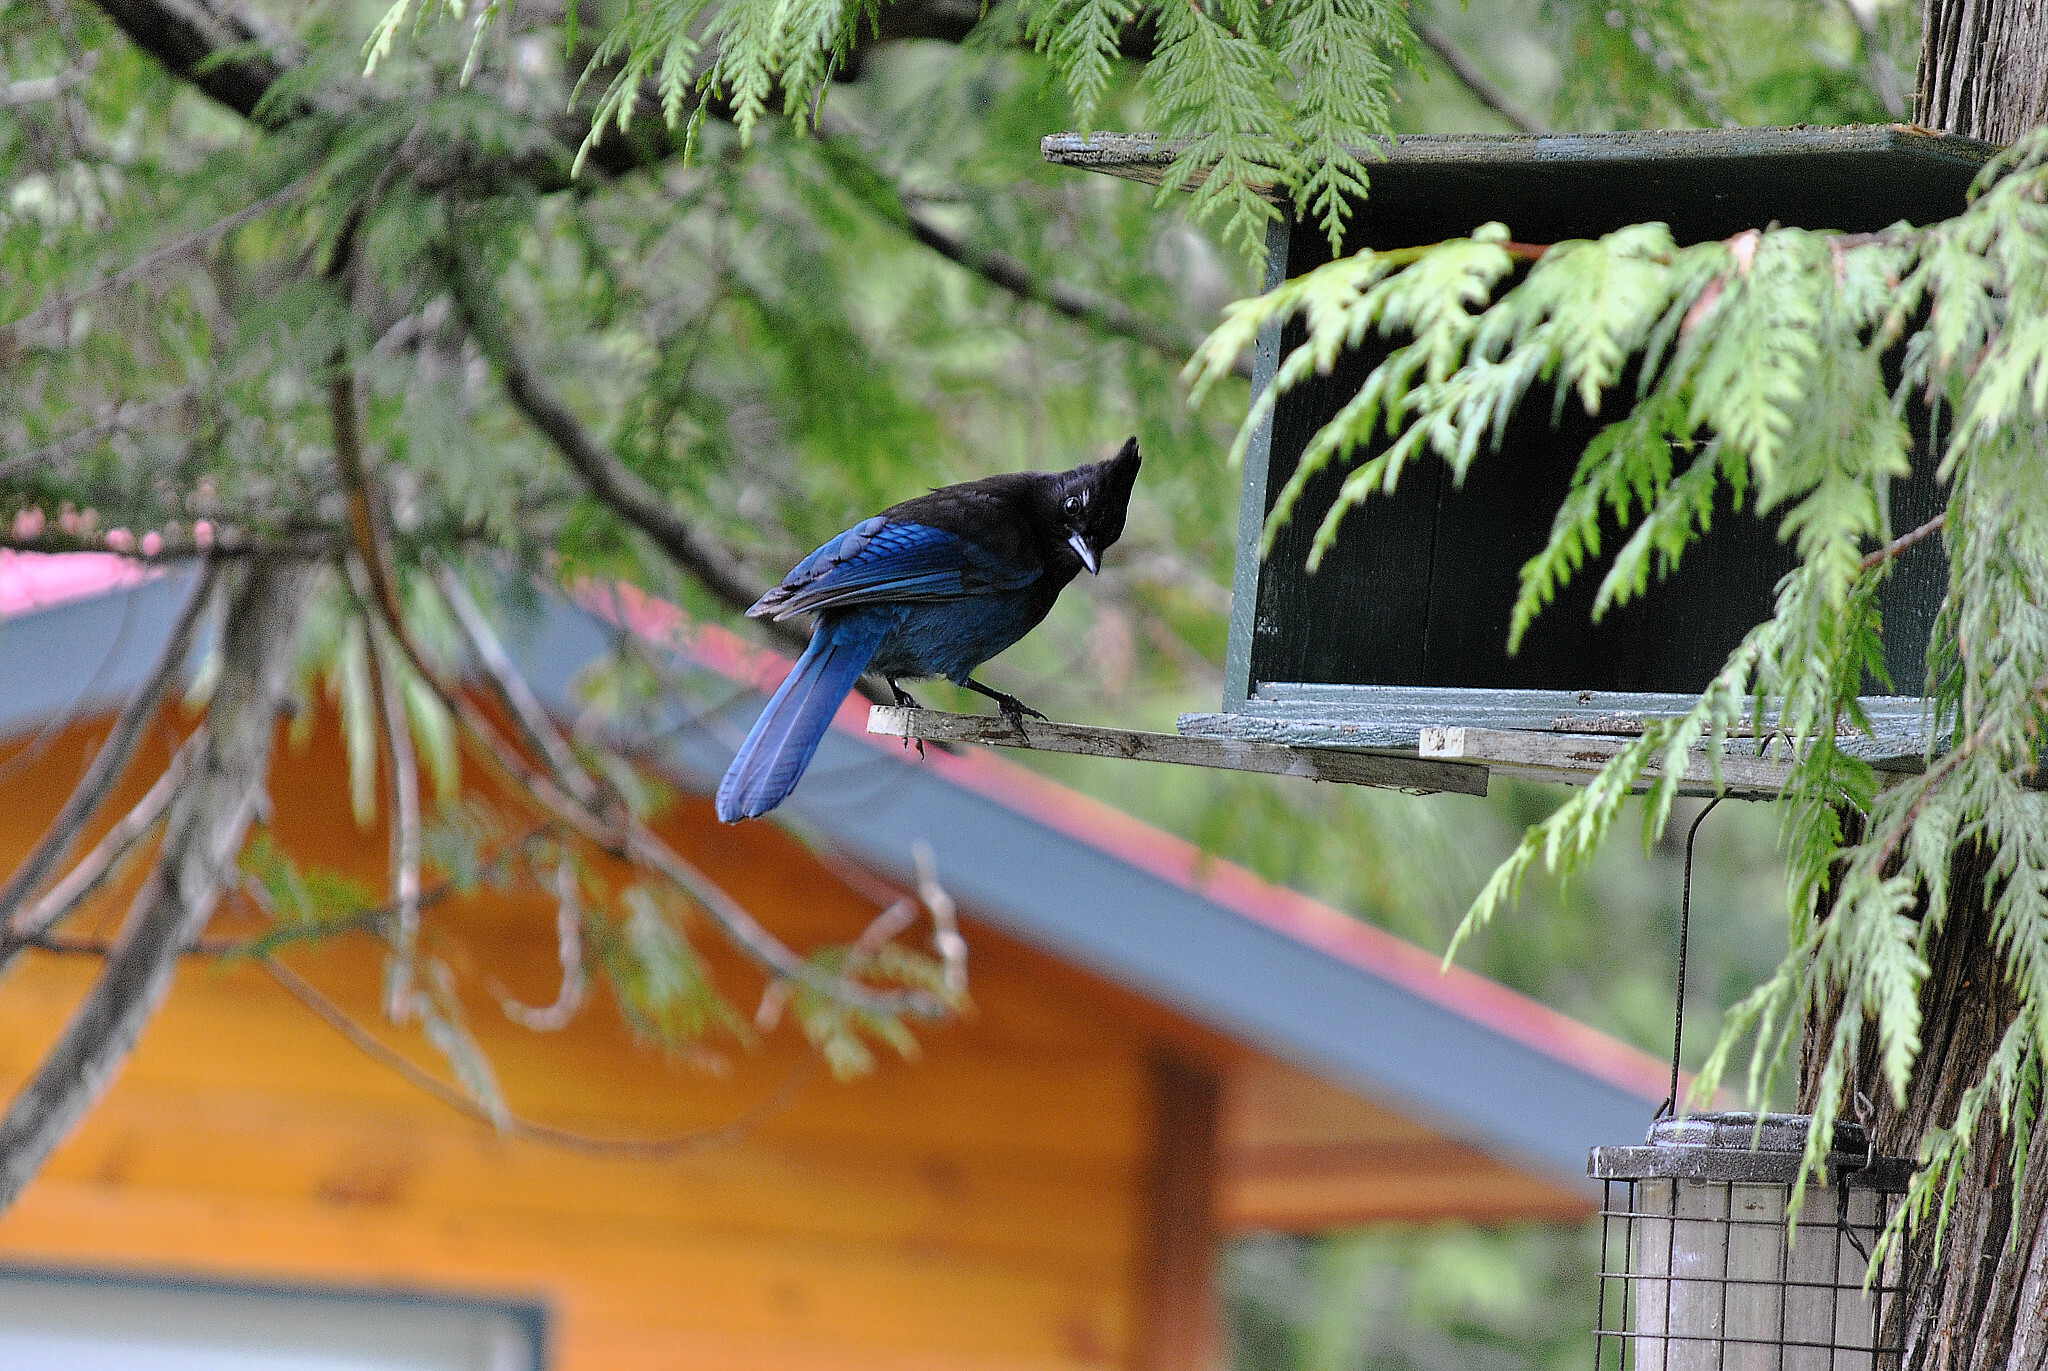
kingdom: Animalia
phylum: Chordata
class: Aves
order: Passeriformes
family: Corvidae
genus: Cyanocitta
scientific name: Cyanocitta stelleri
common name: Steller's jay
